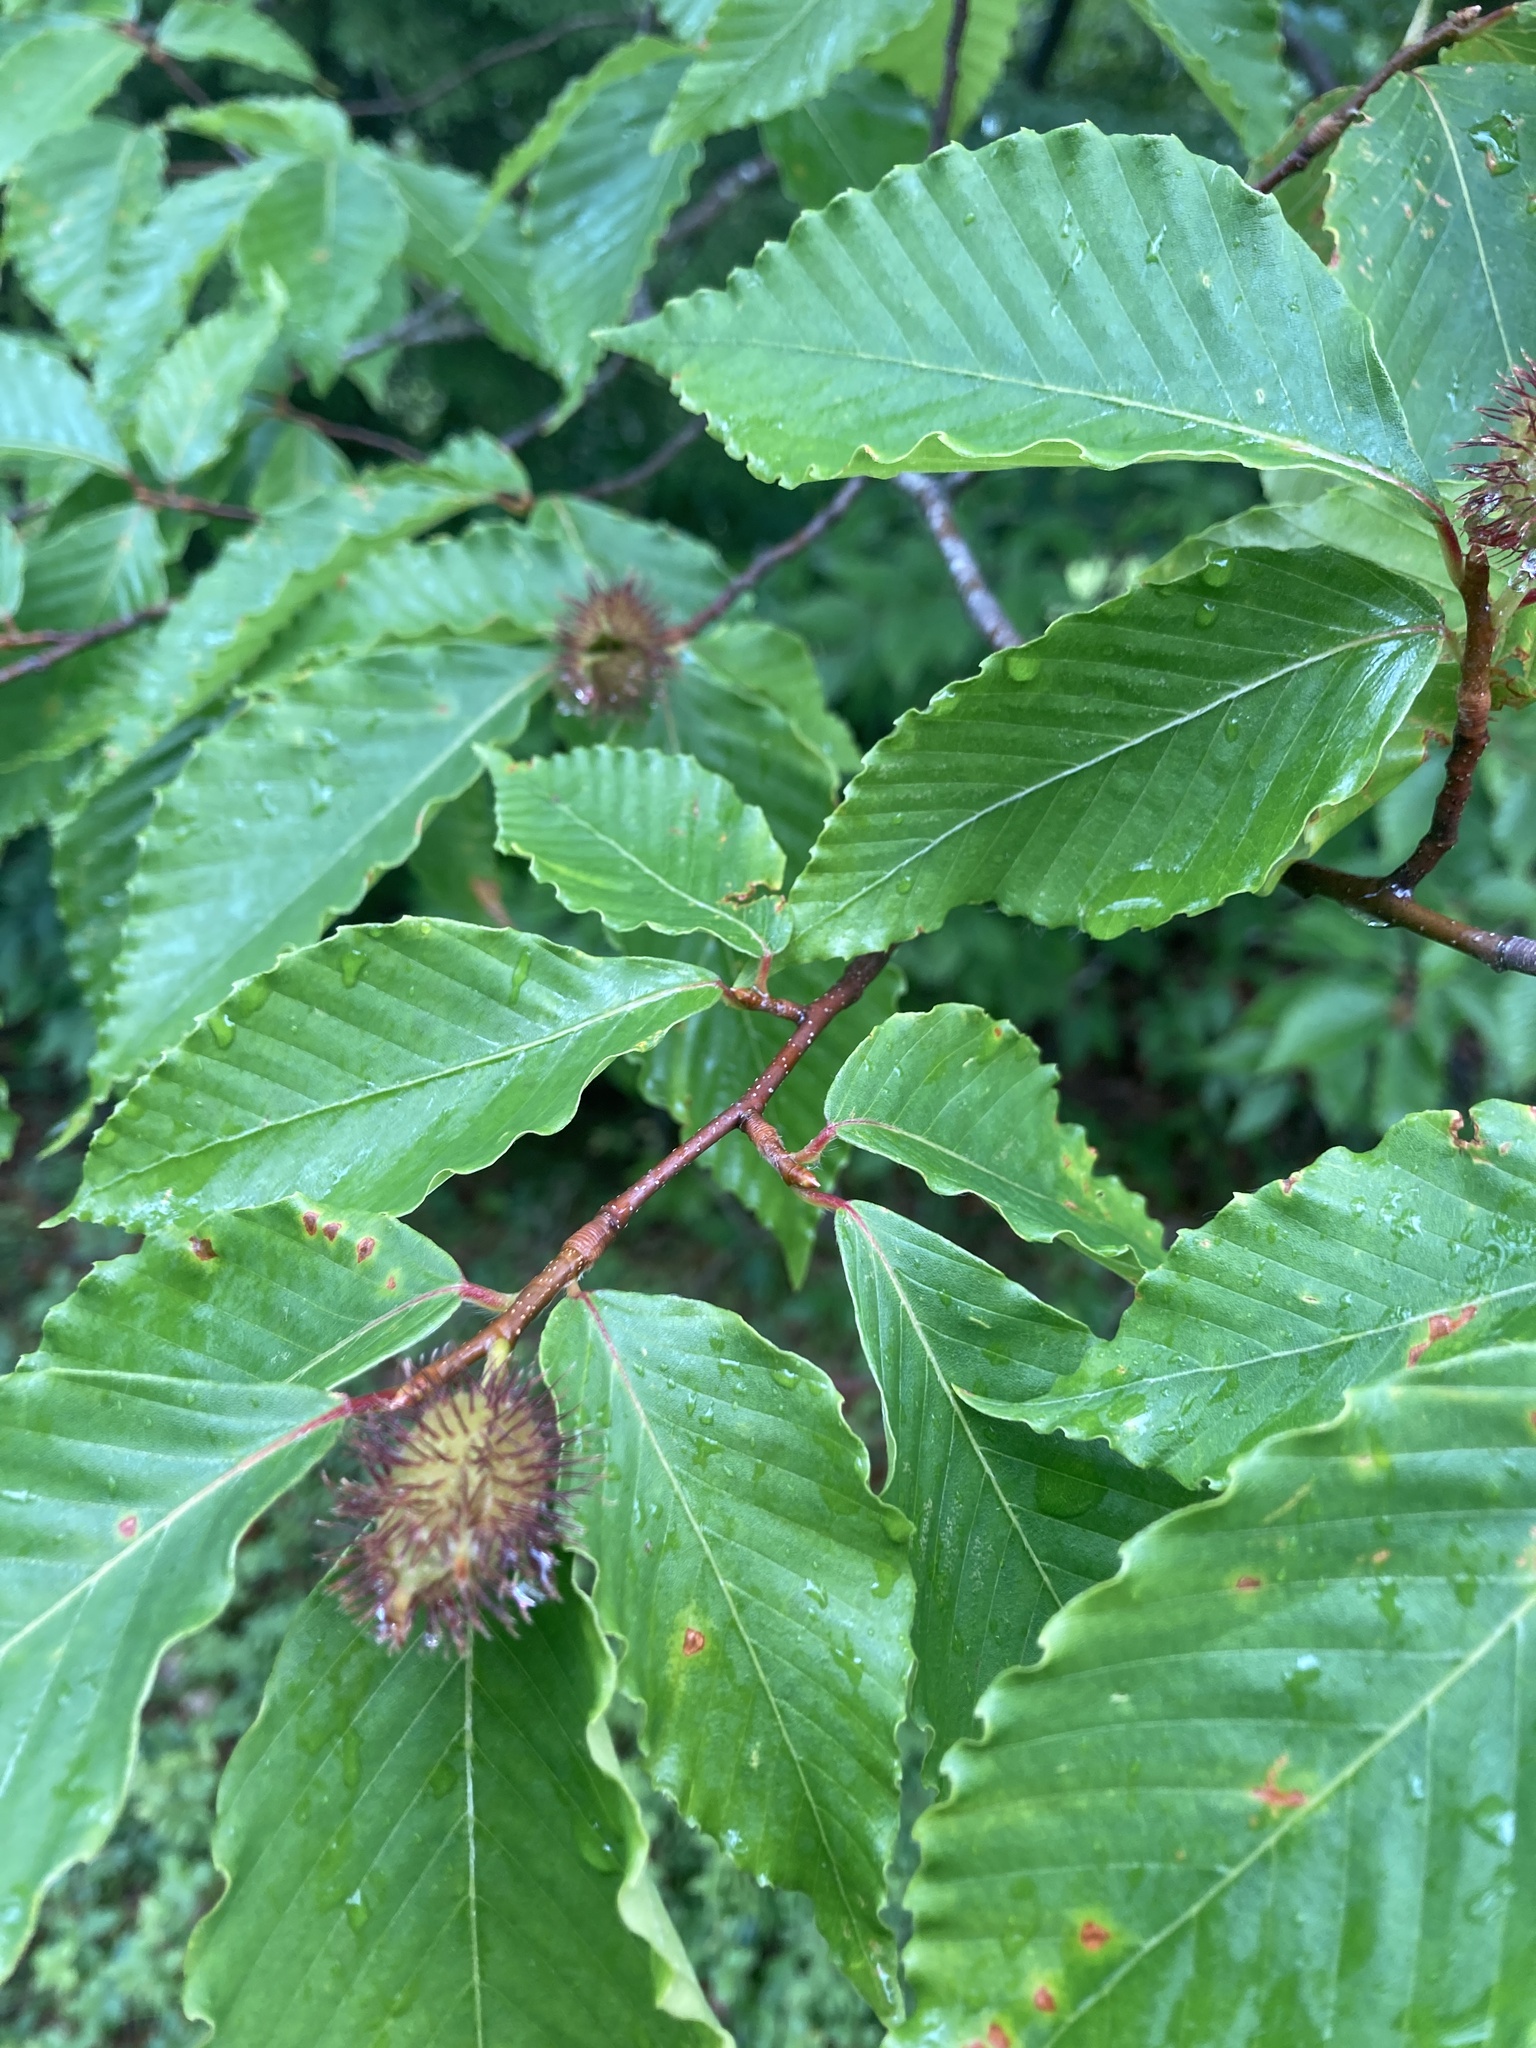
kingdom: Plantae
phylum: Tracheophyta
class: Magnoliopsida
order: Fagales
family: Fagaceae
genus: Fagus
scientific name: Fagus grandifolia
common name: American beech
